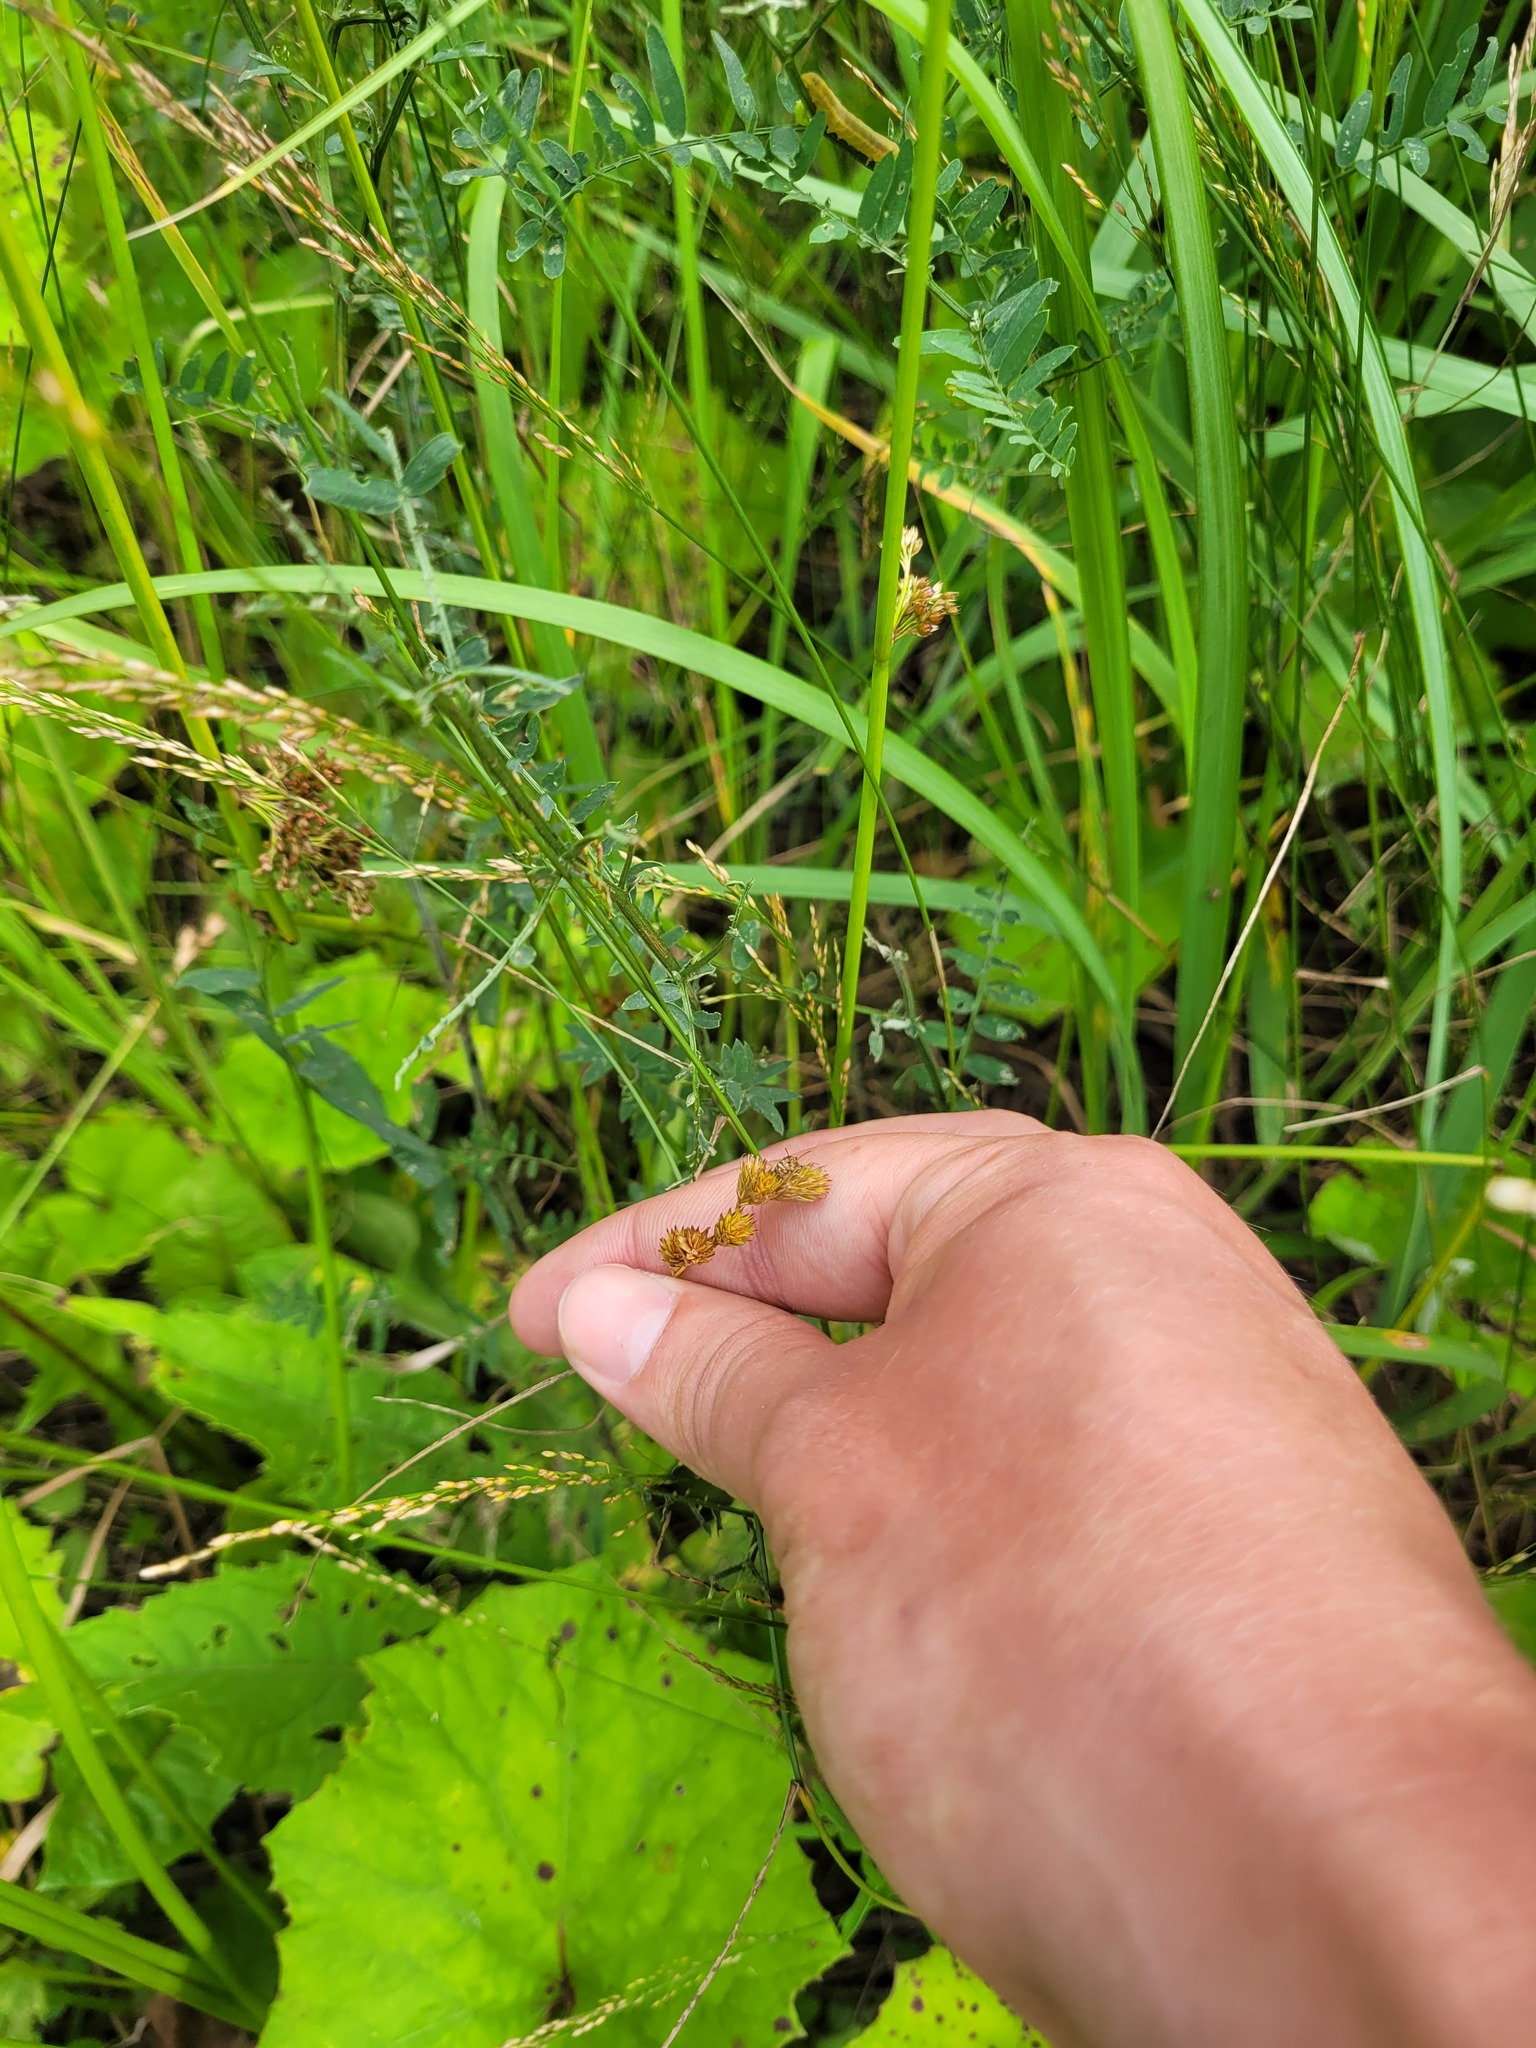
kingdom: Plantae
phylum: Tracheophyta
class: Liliopsida
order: Poales
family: Cyperaceae
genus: Carex
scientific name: Carex leporina
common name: Oval sedge
